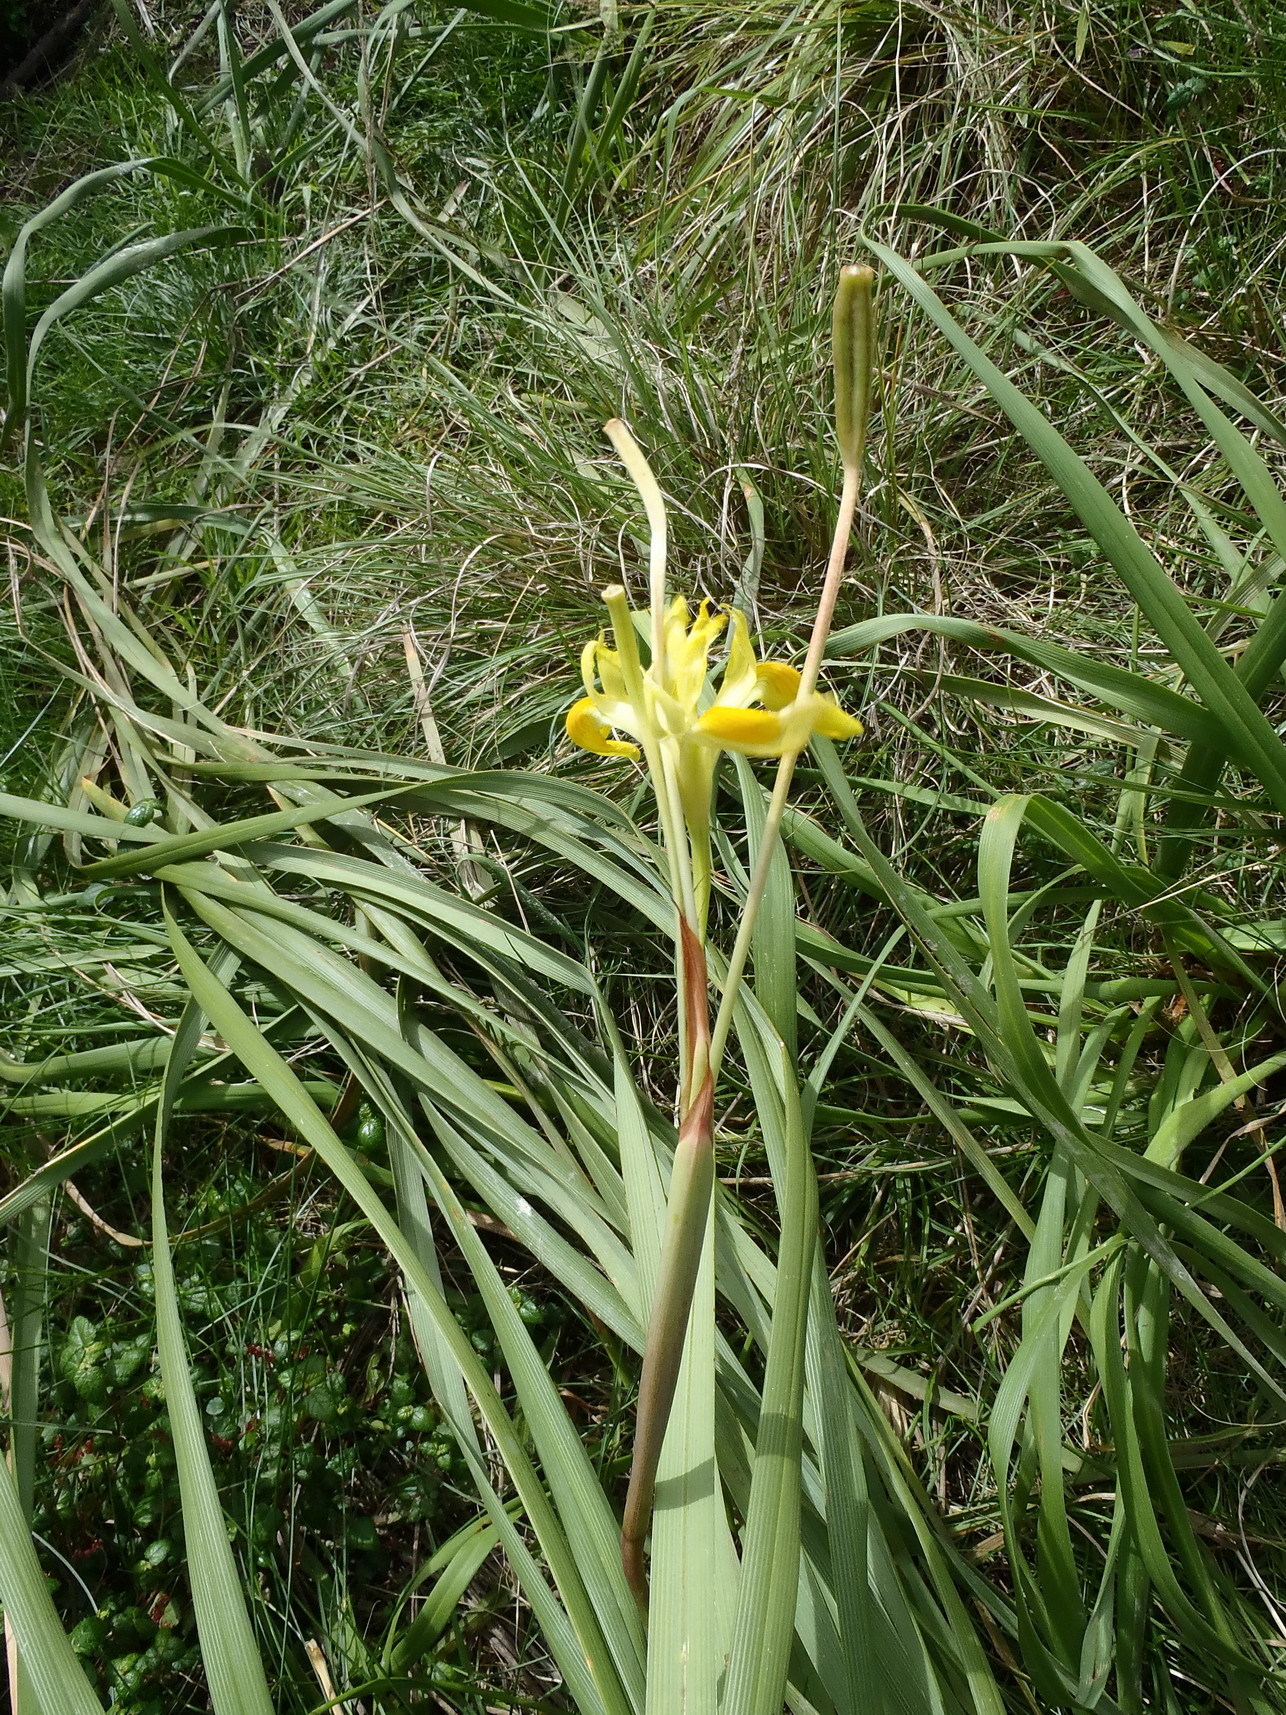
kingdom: Plantae
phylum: Tracheophyta
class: Liliopsida
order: Asparagales
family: Iridaceae
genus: Moraea
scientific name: Moraea spathulata
